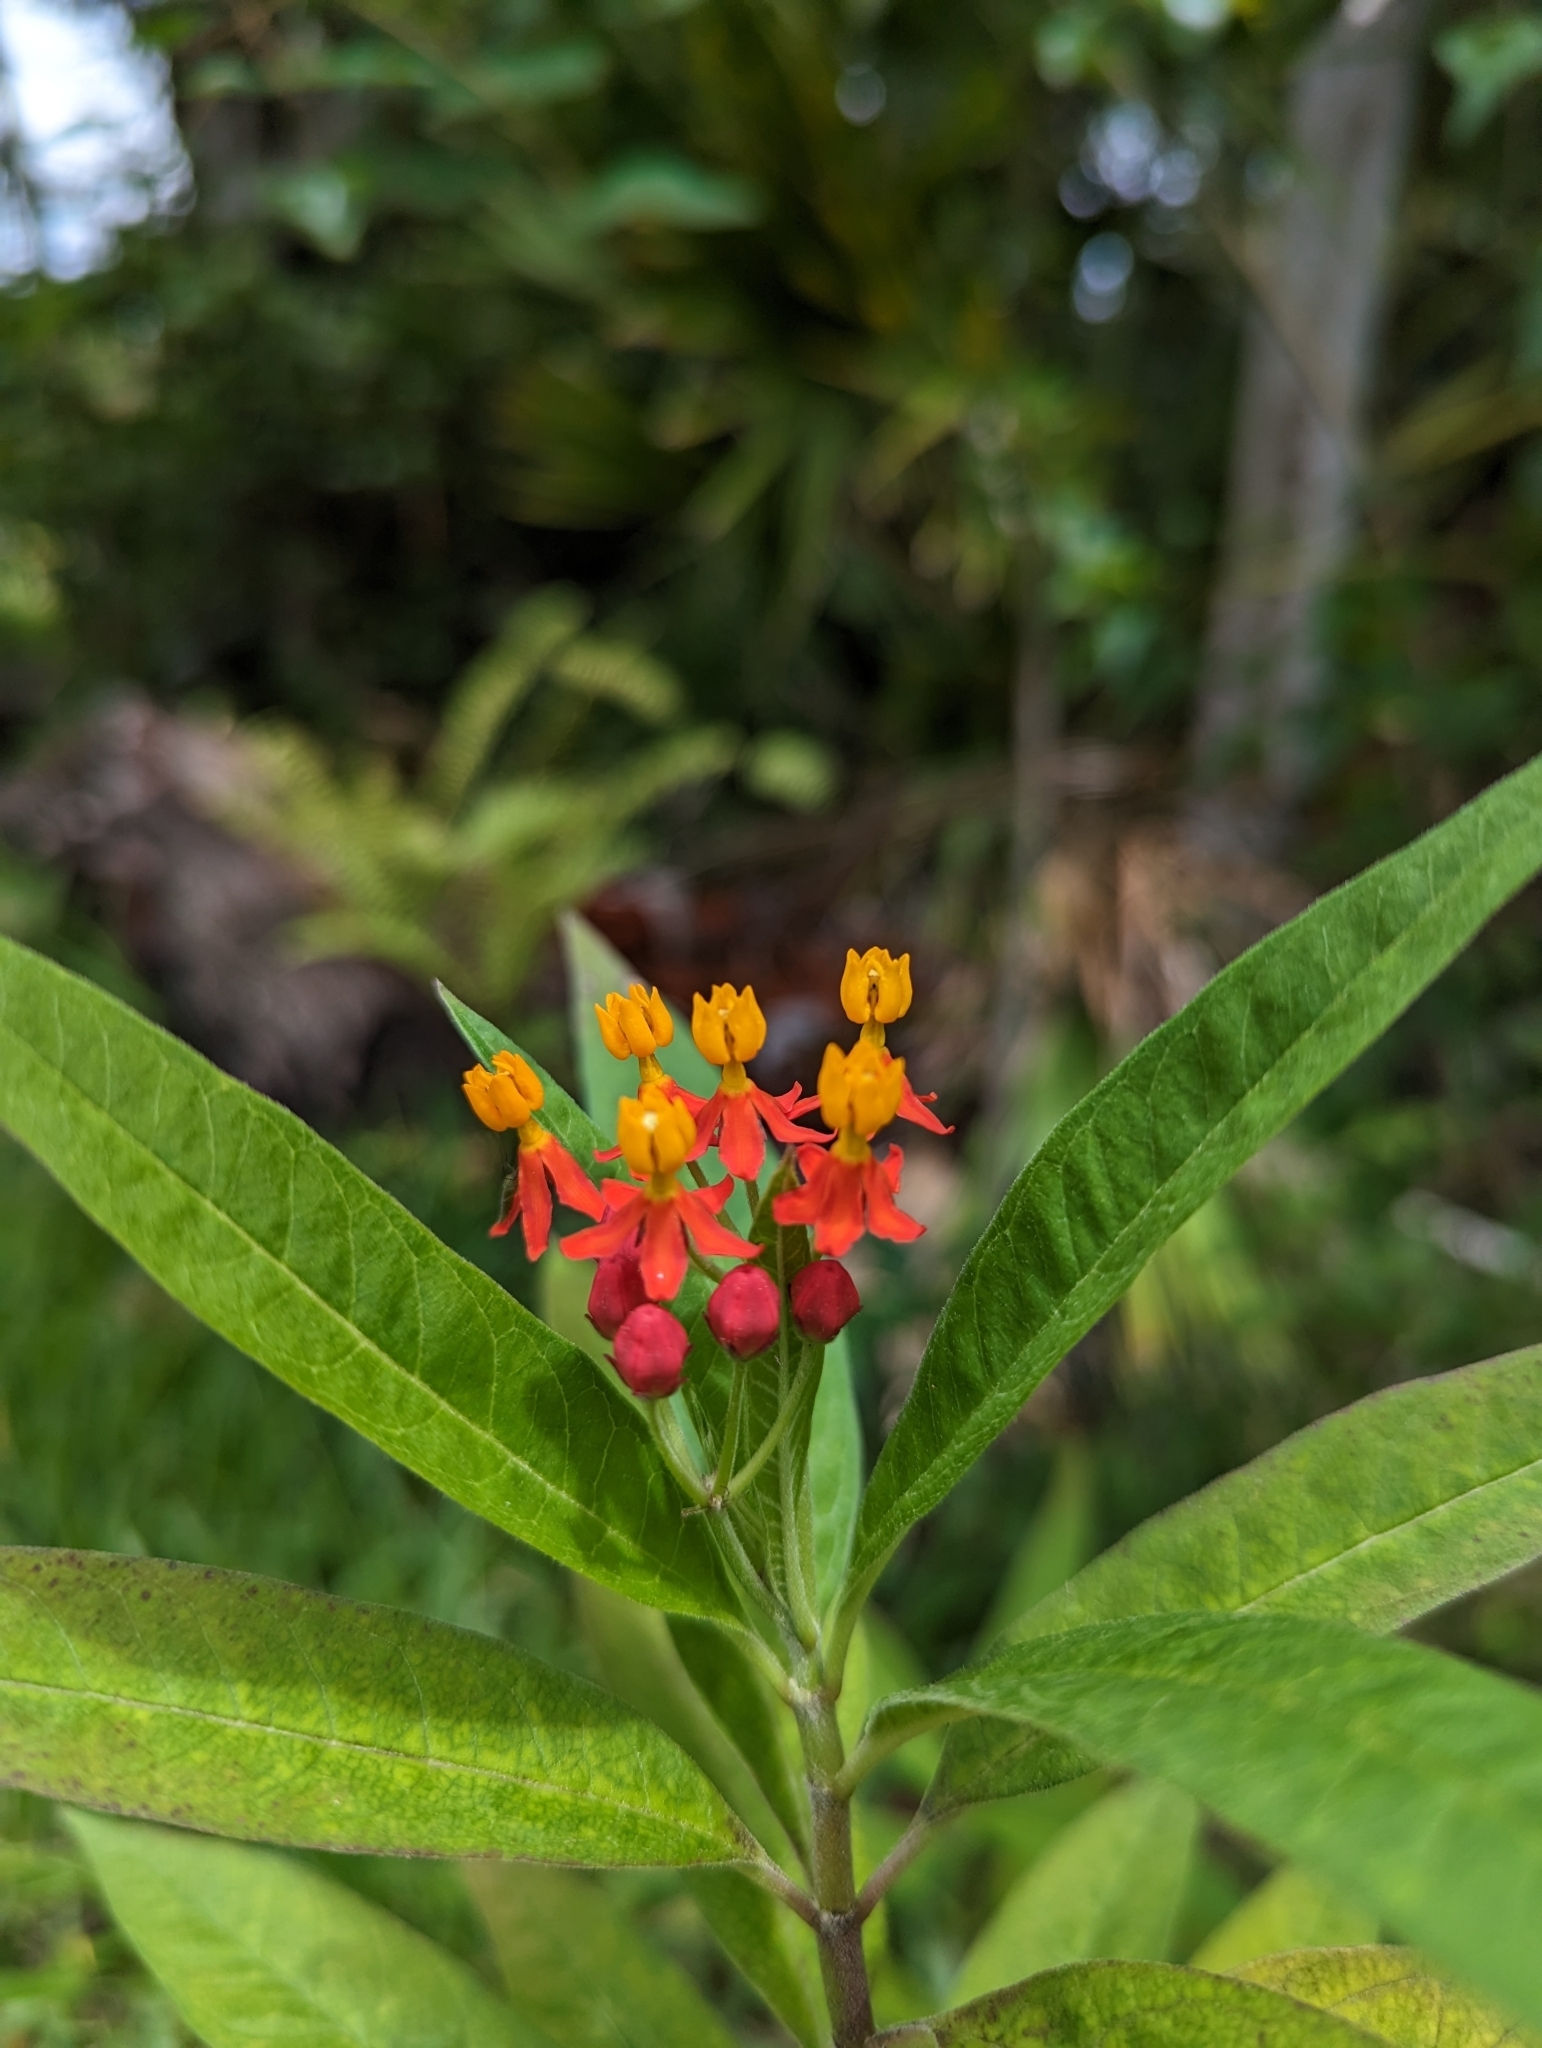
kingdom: Plantae
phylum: Tracheophyta
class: Magnoliopsida
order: Gentianales
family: Apocynaceae
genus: Asclepias
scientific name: Asclepias curassavica
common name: Bloodflower
